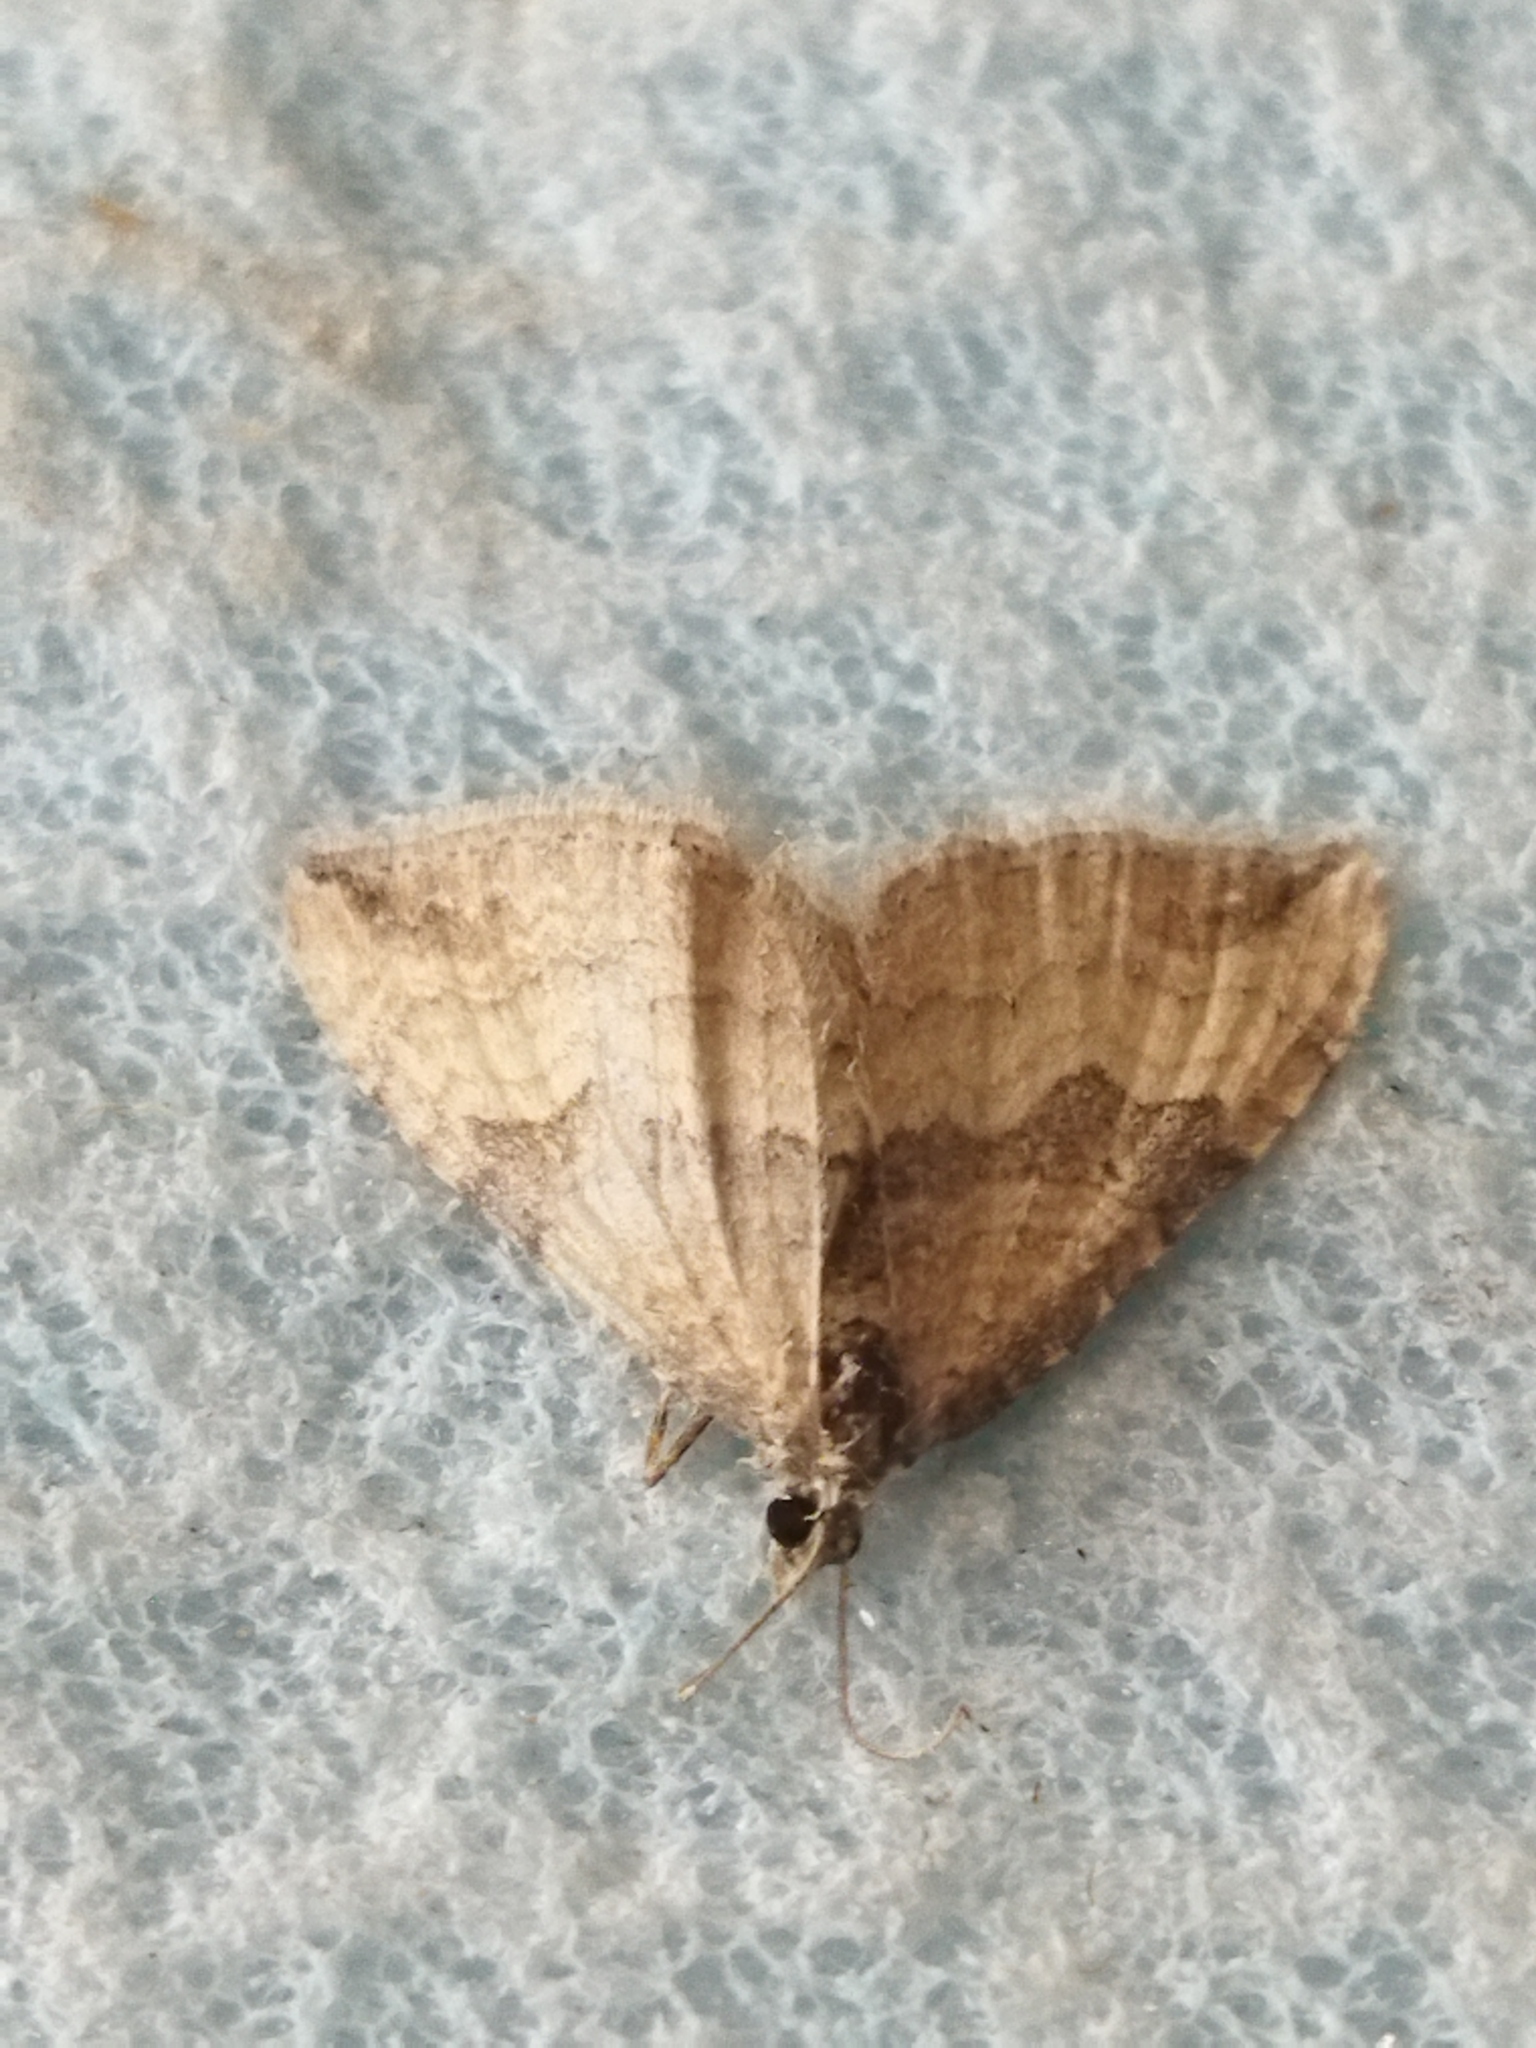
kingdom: Animalia
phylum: Arthropoda
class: Insecta
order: Lepidoptera
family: Geometridae
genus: Orthonama
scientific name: Orthonama obstipata
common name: The gem
